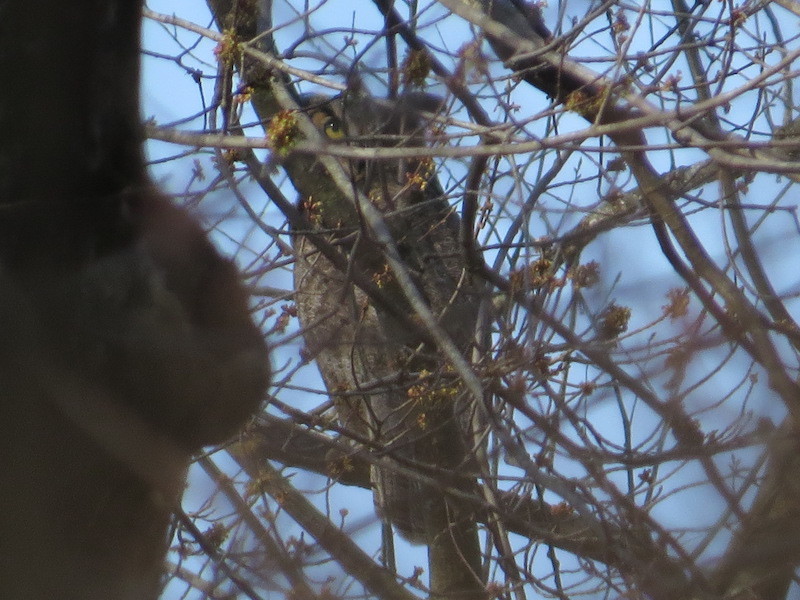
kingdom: Animalia
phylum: Chordata
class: Aves
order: Strigiformes
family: Strigidae
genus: Bubo
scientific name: Bubo virginianus
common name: Great horned owl
